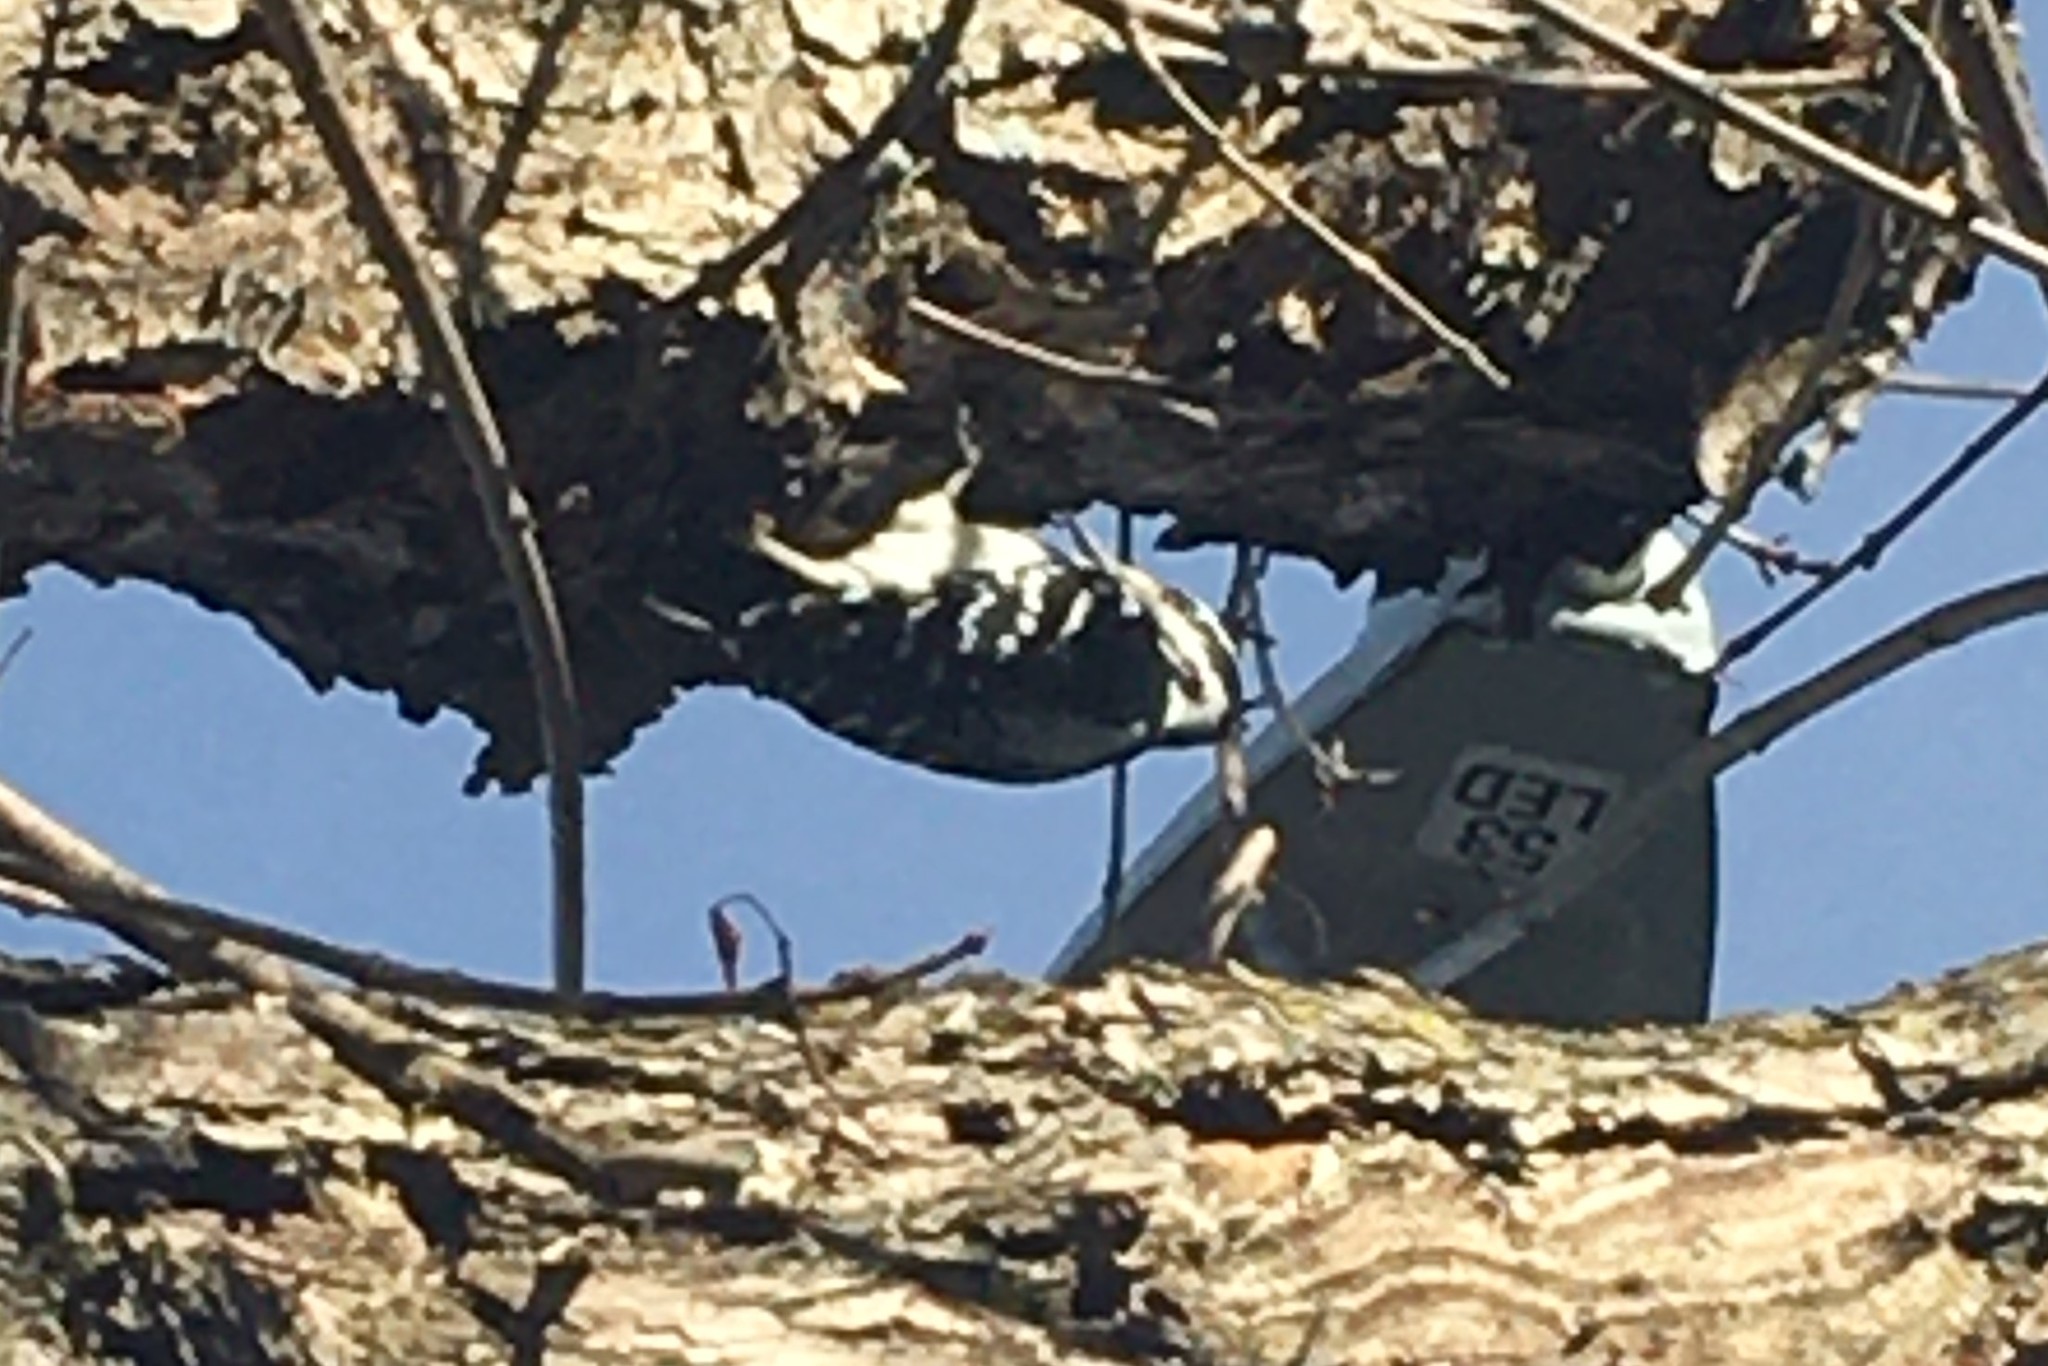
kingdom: Animalia
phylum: Chordata
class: Aves
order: Piciformes
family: Picidae
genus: Dryobates
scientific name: Dryobates pubescens
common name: Downy woodpecker
